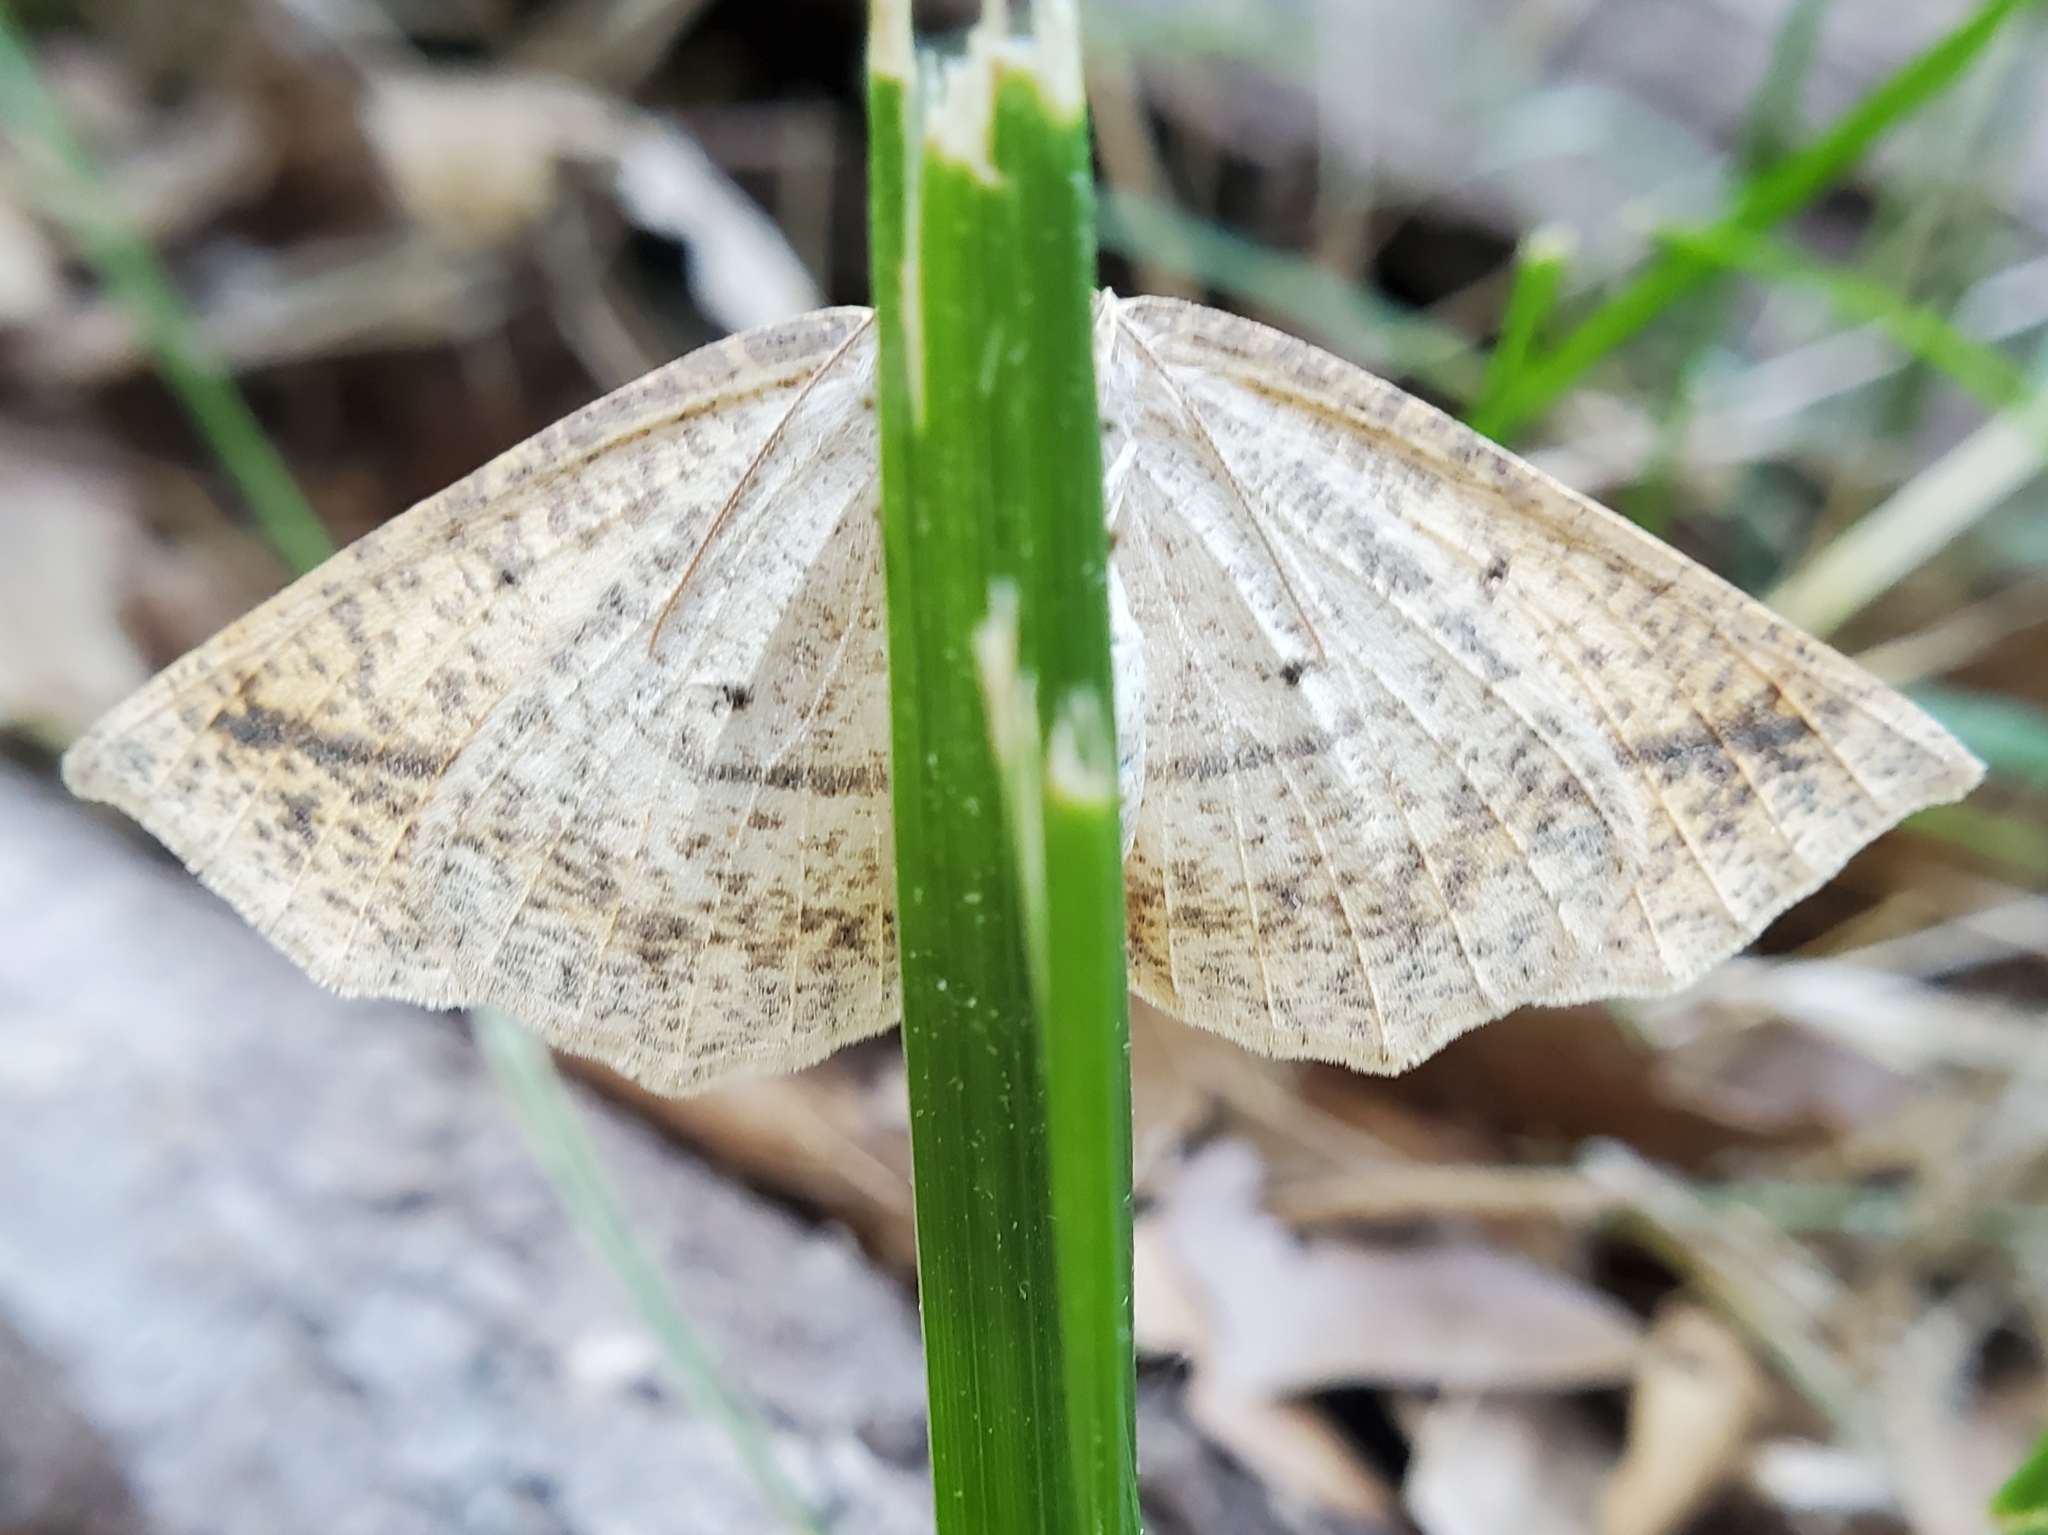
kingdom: Animalia
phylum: Arthropoda
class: Insecta
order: Lepidoptera
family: Geometridae
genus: Eusarca
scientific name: Eusarca confusaria
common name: Confused eusarca
